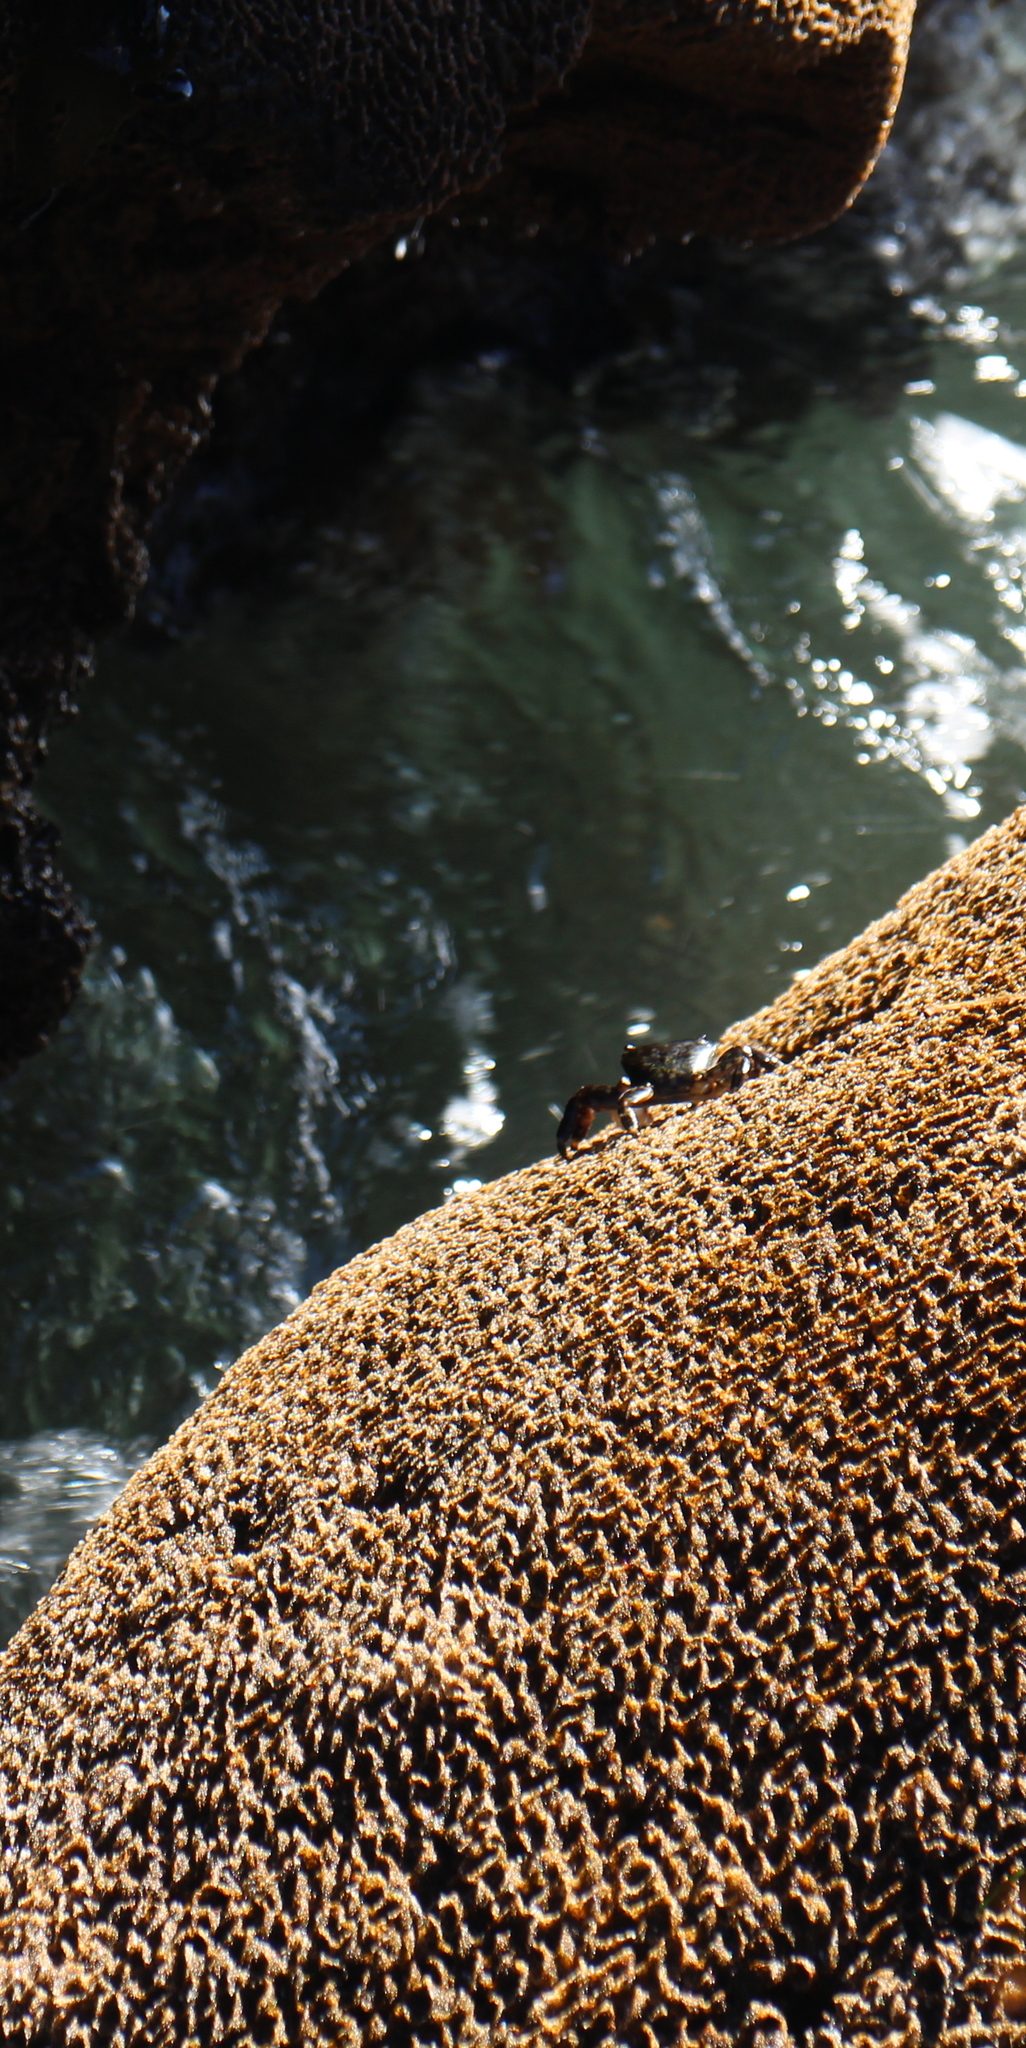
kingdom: Animalia
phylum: Arthropoda
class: Malacostraca
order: Decapoda
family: Grapsidae
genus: Pachygrapsus
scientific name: Pachygrapsus crassipes
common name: Striped shore crab
